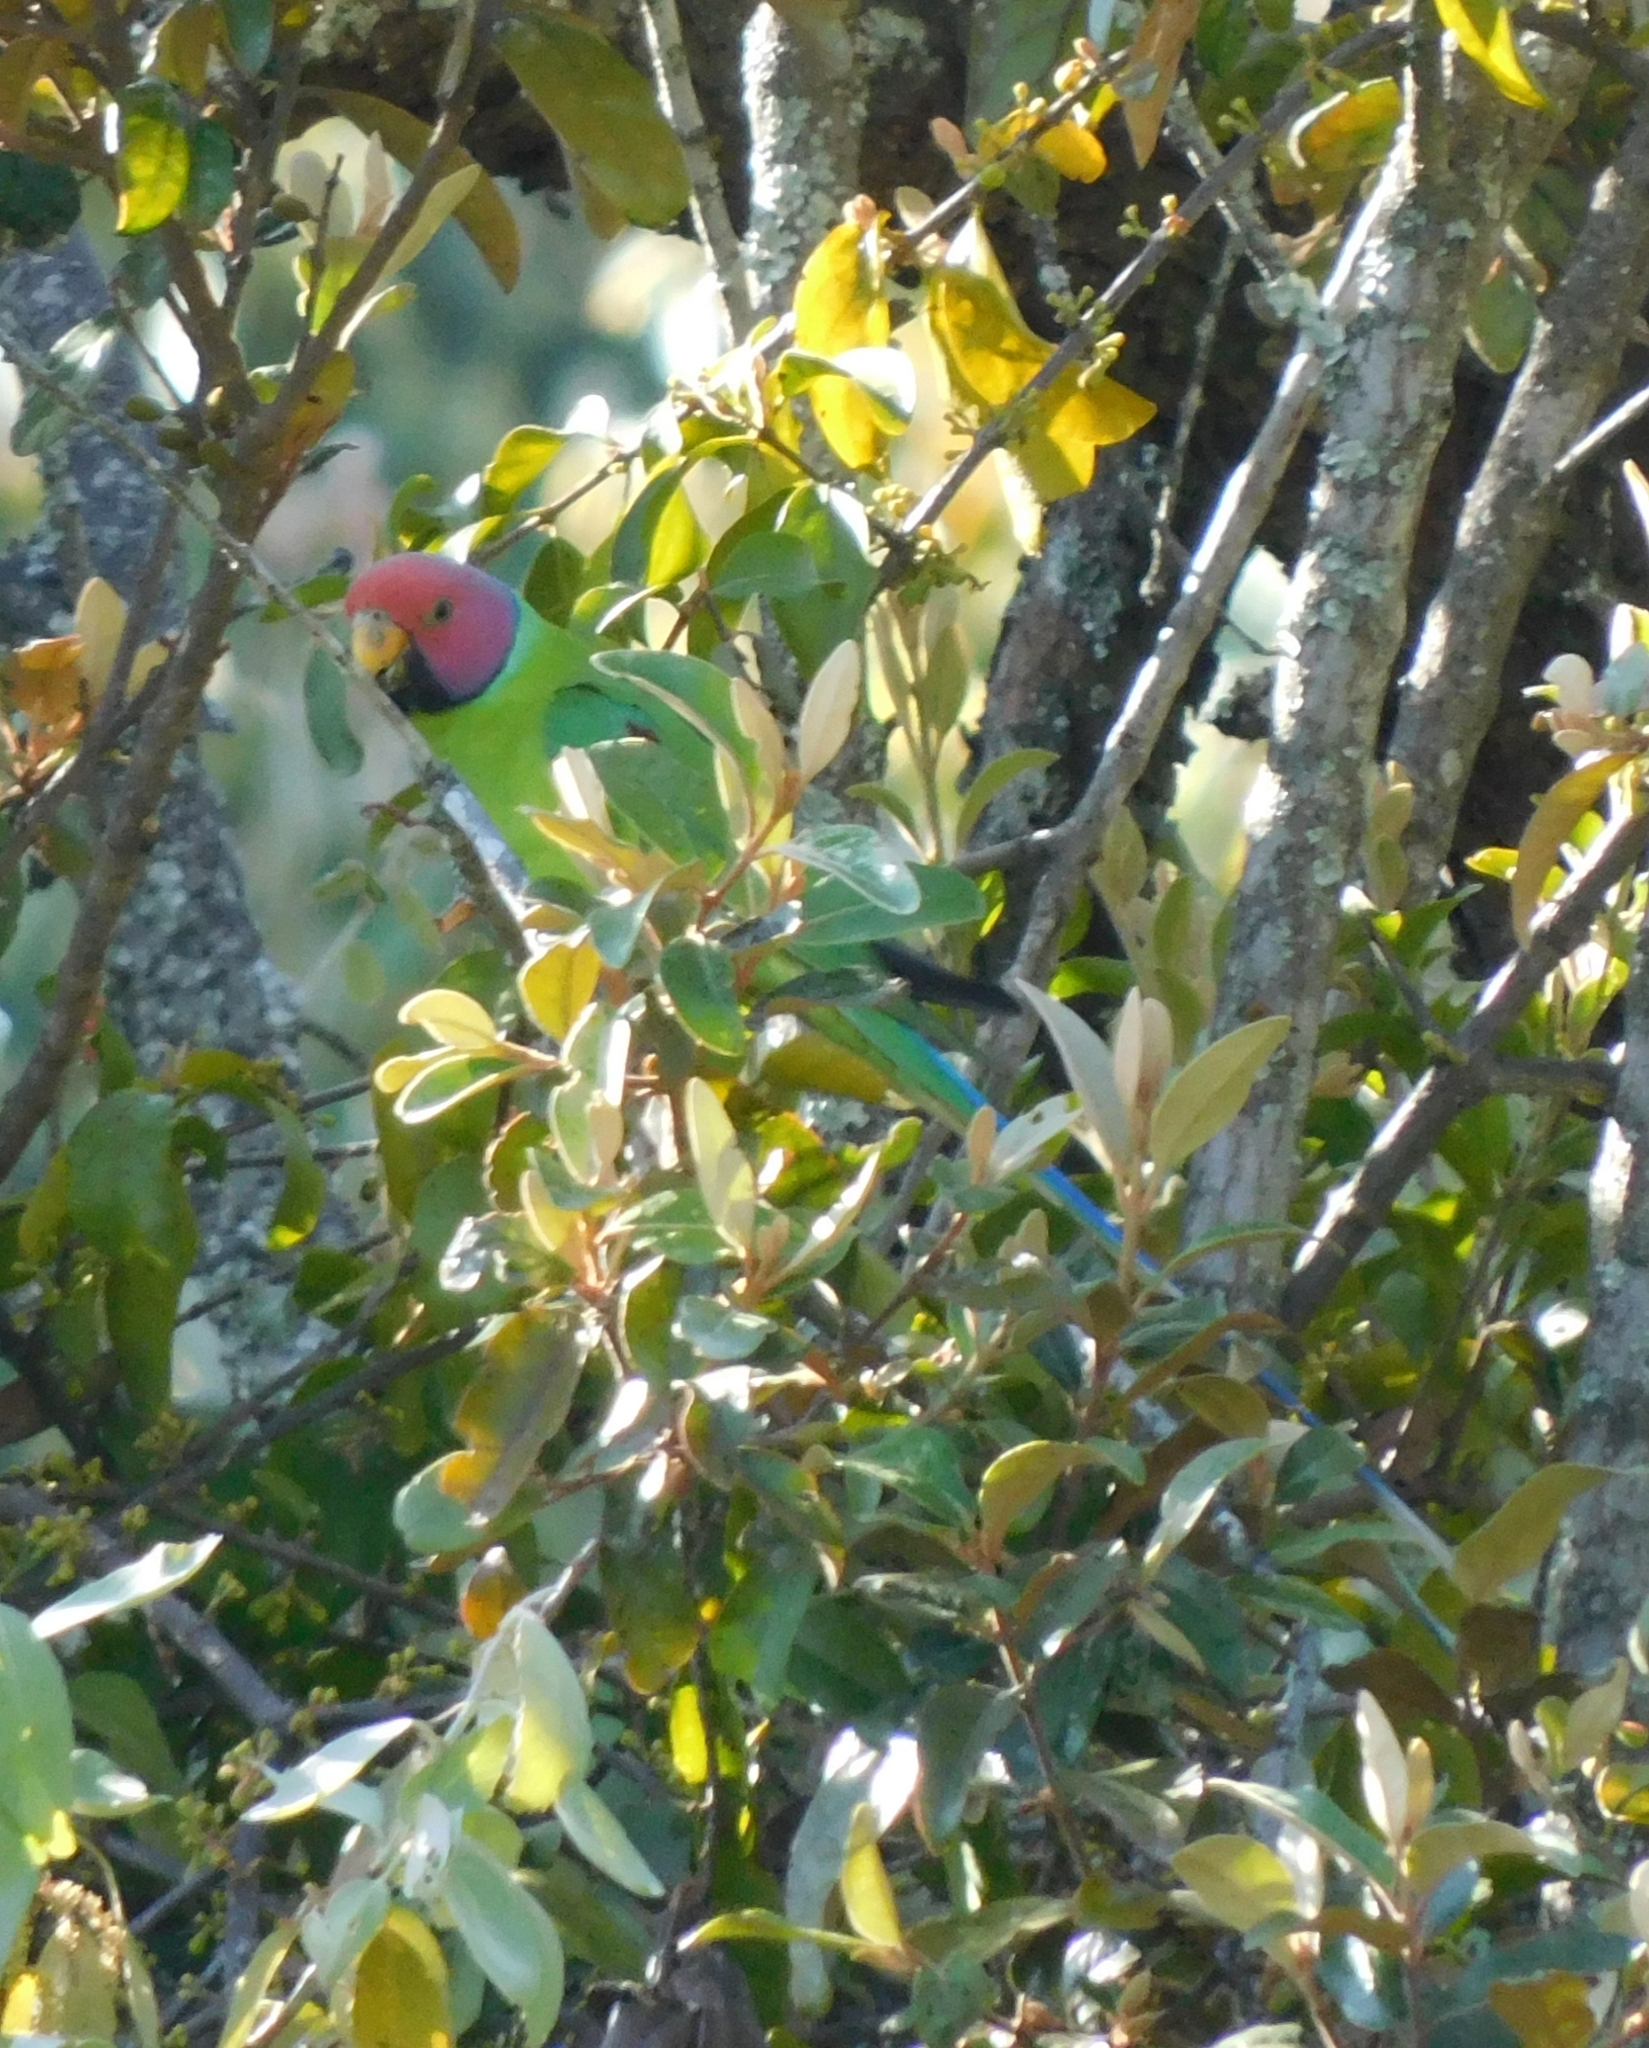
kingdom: Animalia
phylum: Chordata
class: Aves
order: Psittaciformes
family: Psittacidae
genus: Psittacula
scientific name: Psittacula cyanocephala
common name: Plum-headed parakeet
